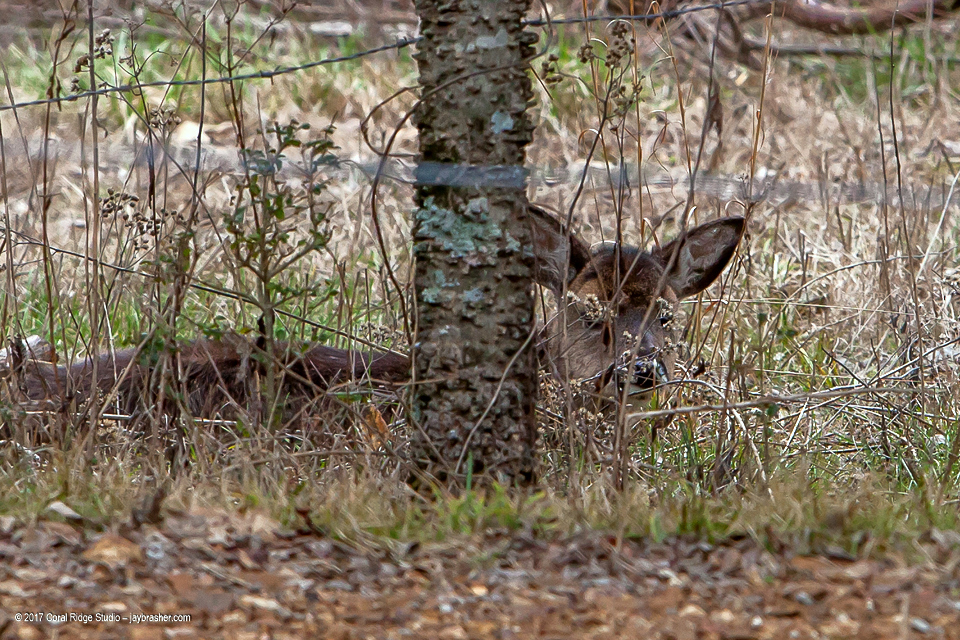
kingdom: Animalia
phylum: Chordata
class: Mammalia
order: Artiodactyla
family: Cervidae
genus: Odocoileus
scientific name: Odocoileus virginianus
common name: White-tailed deer
